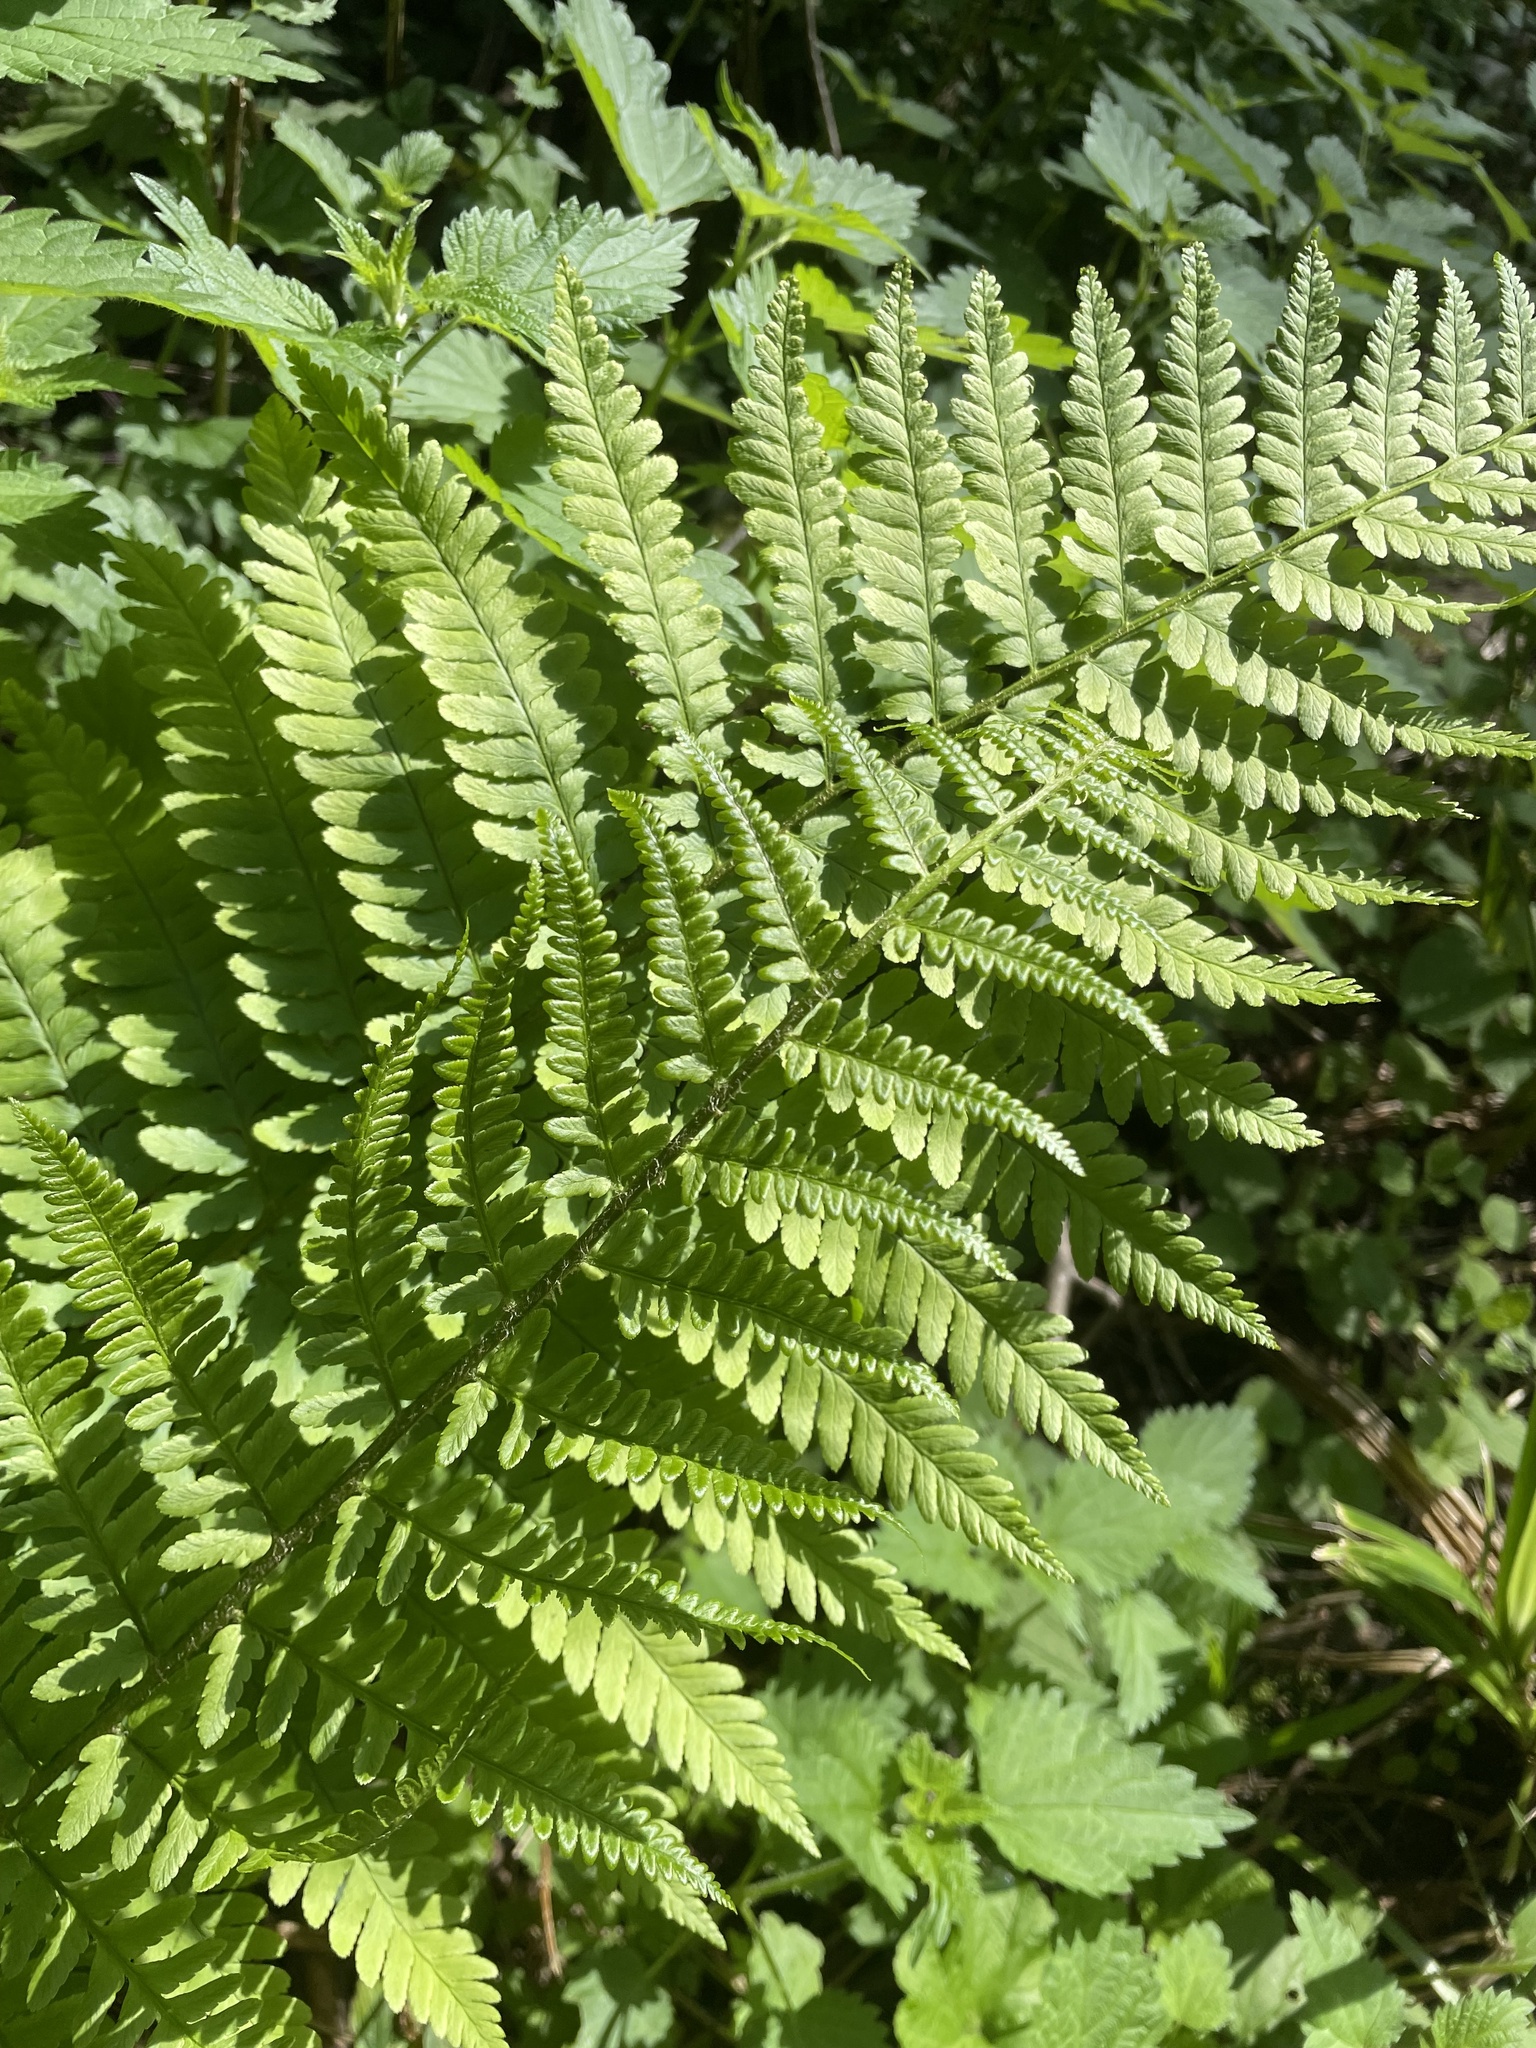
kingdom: Plantae
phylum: Tracheophyta
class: Polypodiopsida
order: Polypodiales
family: Dryopteridaceae
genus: Dryopteris
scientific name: Dryopteris filix-mas
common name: Male fern
